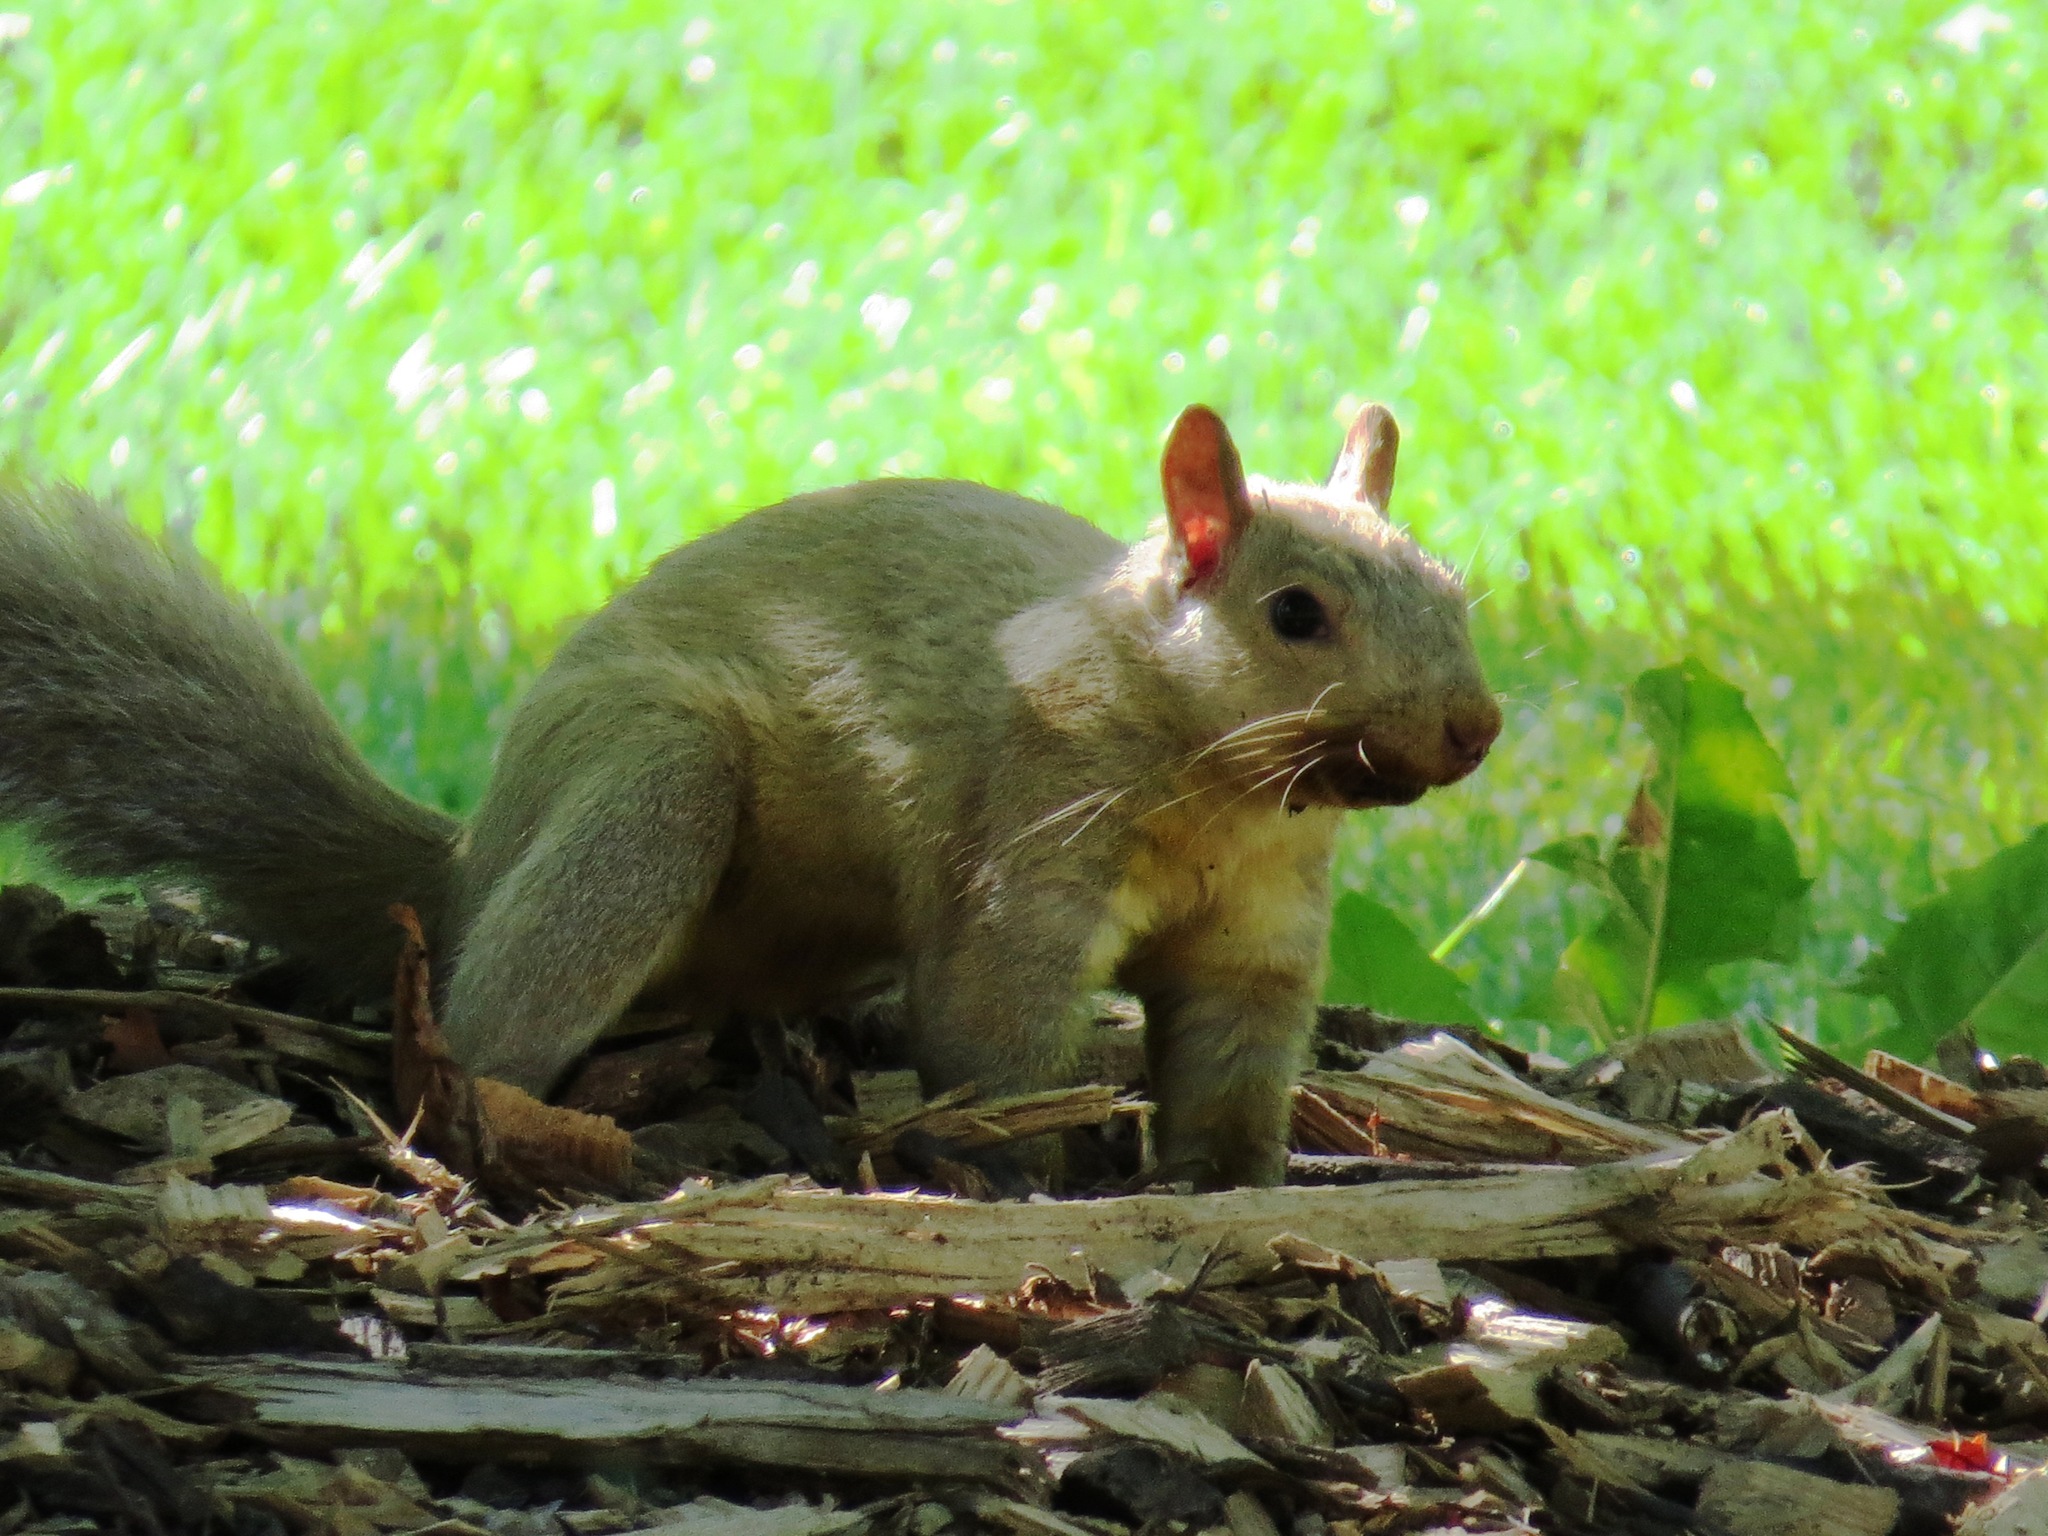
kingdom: Animalia
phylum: Chordata
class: Mammalia
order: Rodentia
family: Sciuridae
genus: Sciurus
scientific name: Sciurus carolinensis
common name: Eastern gray squirrel
